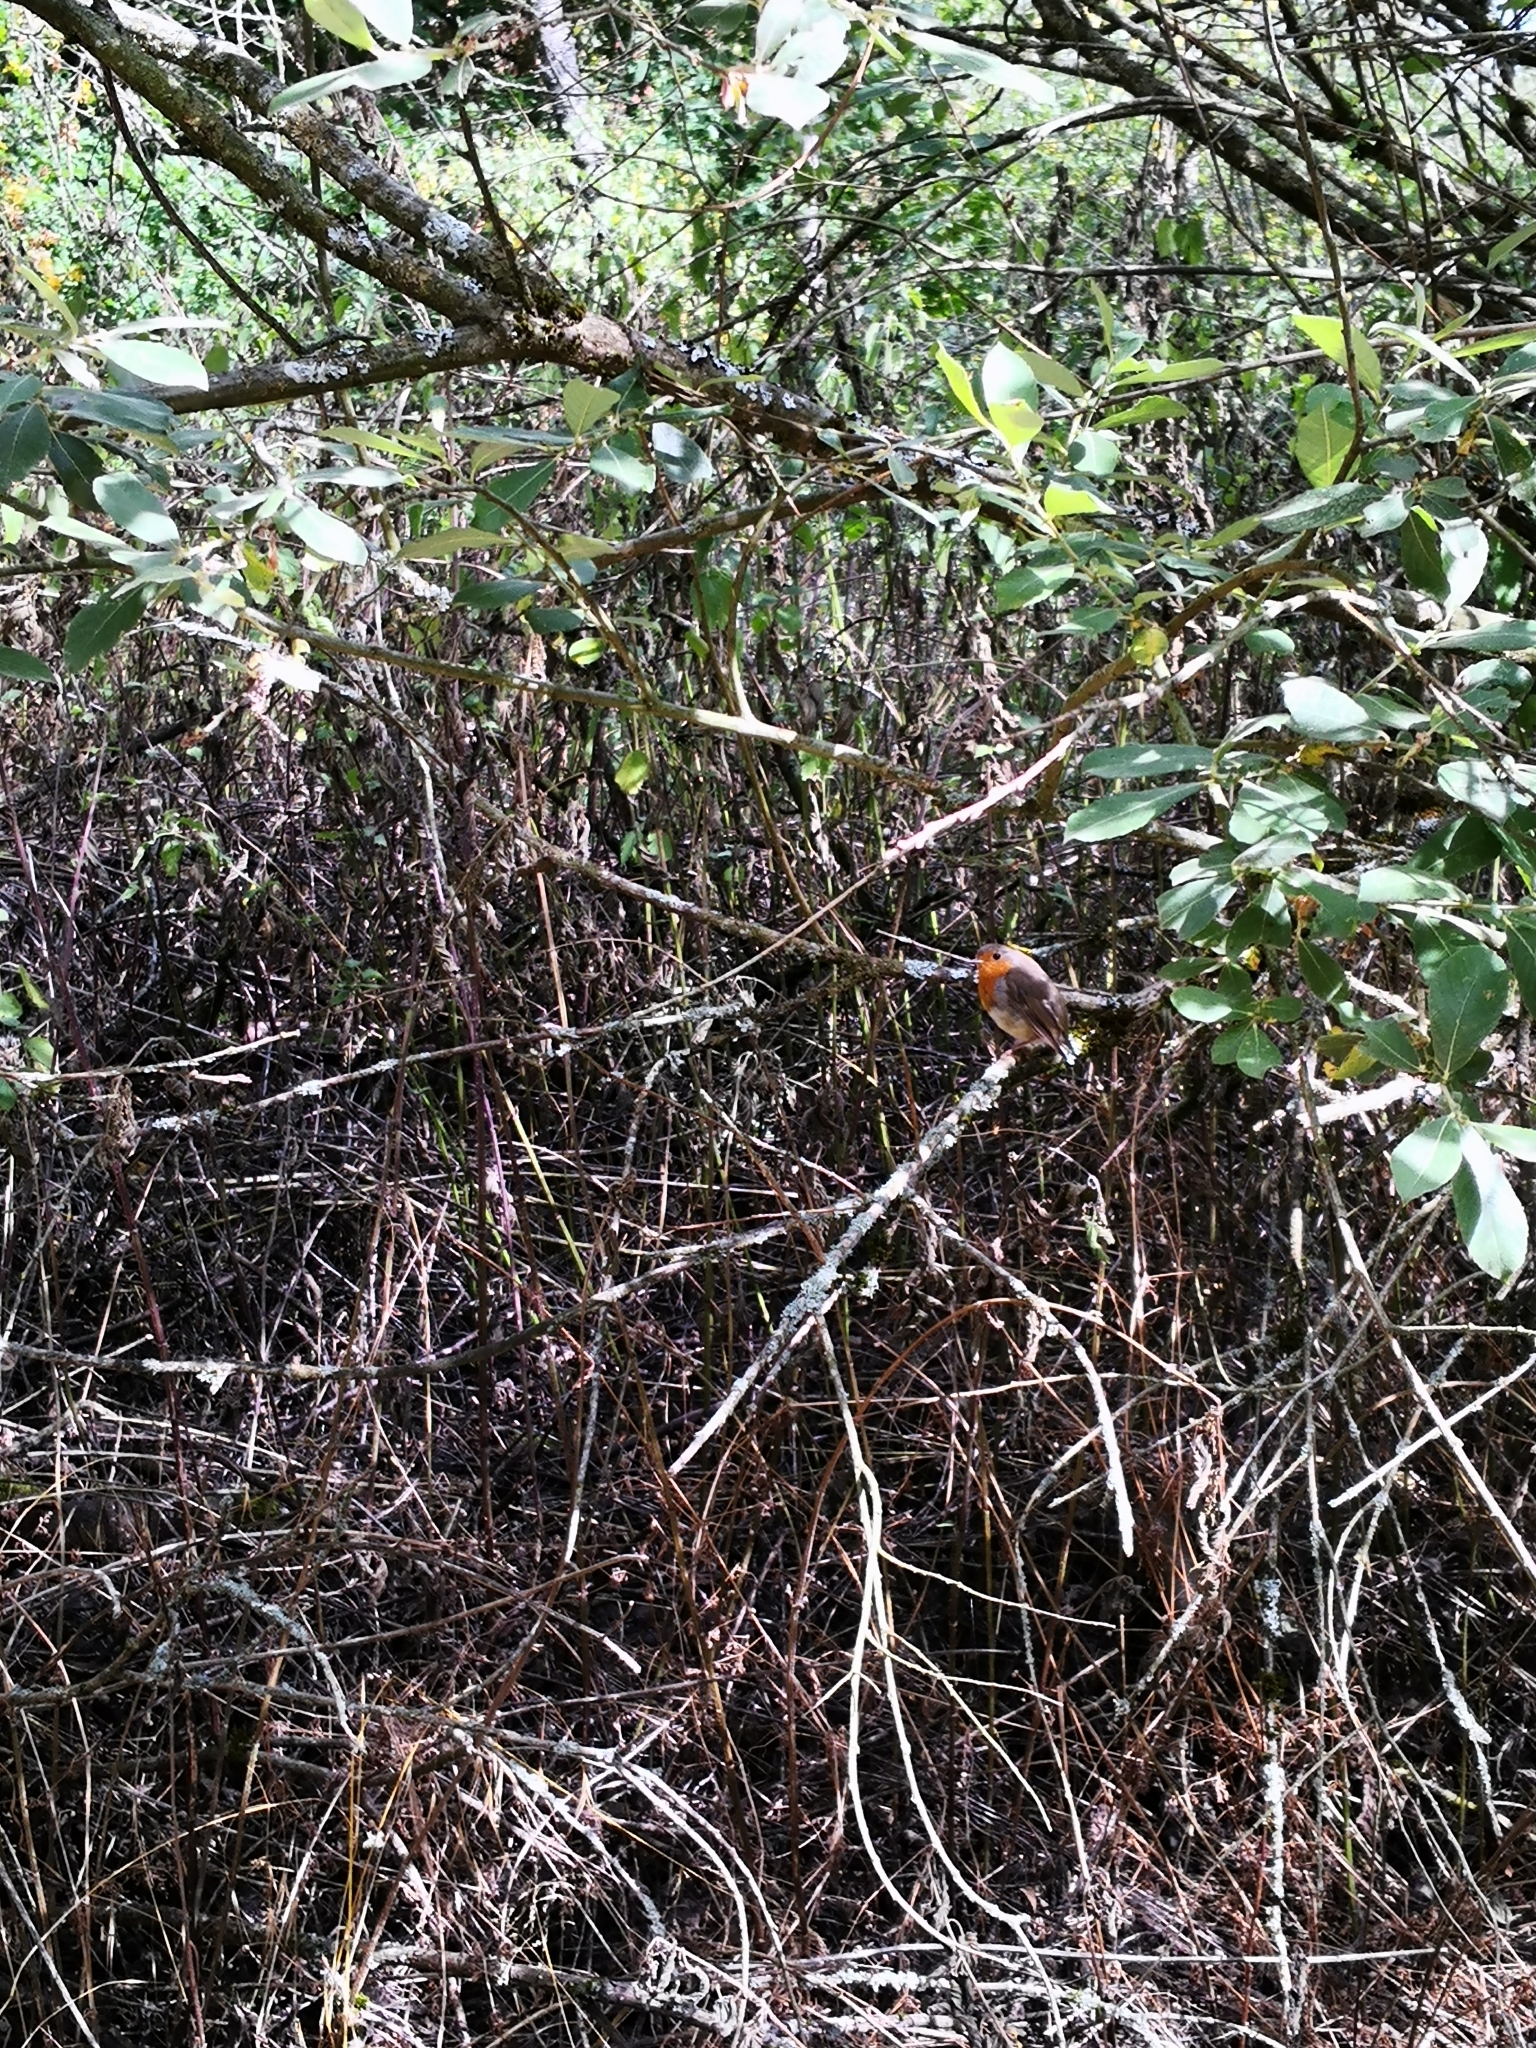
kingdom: Animalia
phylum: Chordata
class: Aves
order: Passeriformes
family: Muscicapidae
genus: Erithacus
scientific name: Erithacus rubecula
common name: European robin
